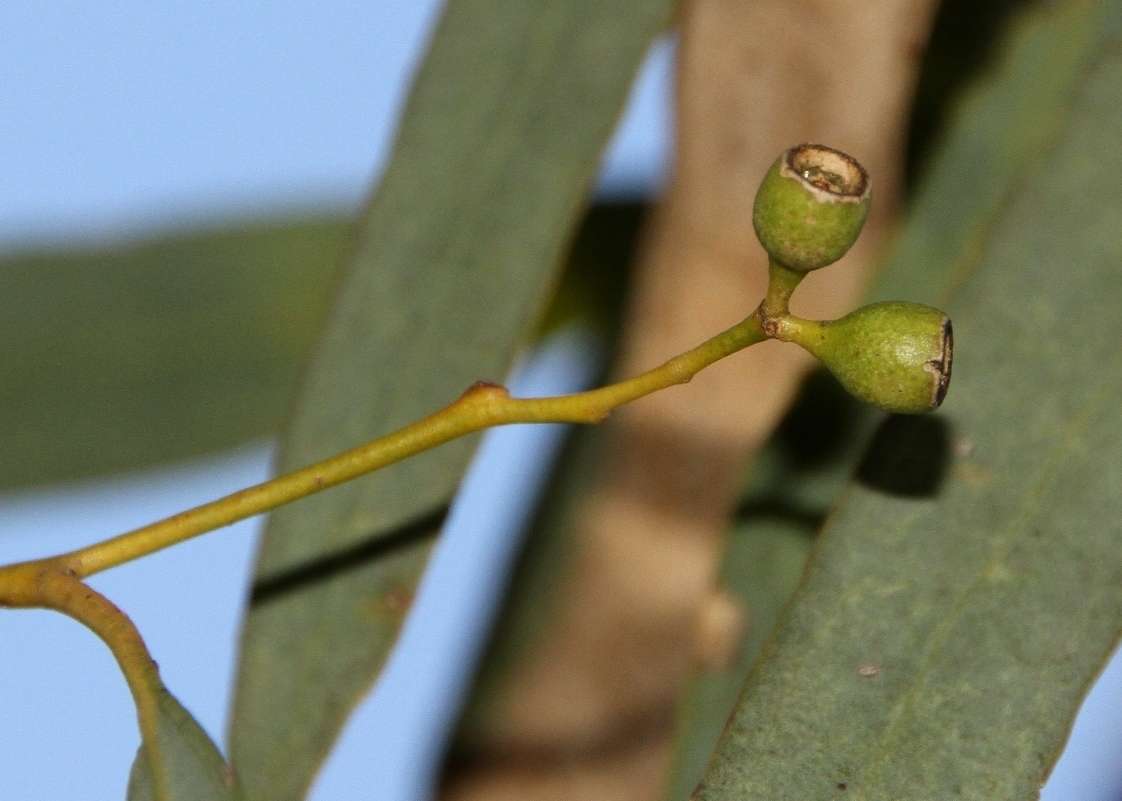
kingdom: Plantae
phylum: Tracheophyta
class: Magnoliopsida
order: Myrtales
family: Myrtaceae
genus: Eucalyptus
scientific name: Eucalyptus largiflorens
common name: Black-box
